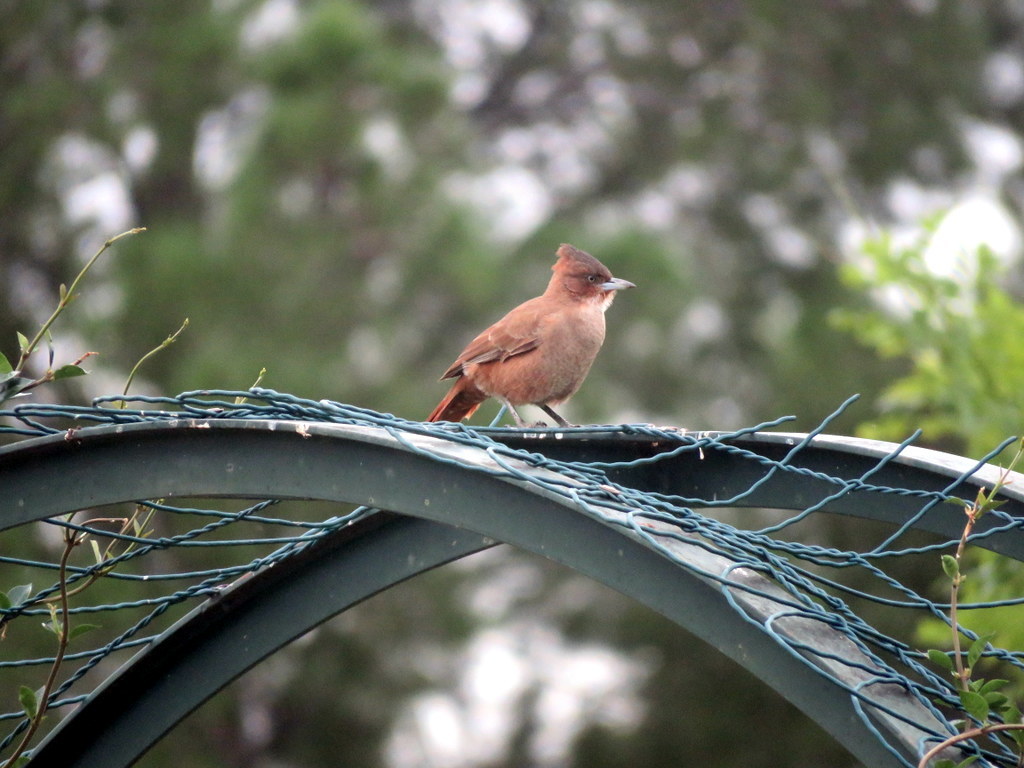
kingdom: Animalia
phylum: Chordata
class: Aves
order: Passeriformes
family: Furnariidae
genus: Pseudoseisura
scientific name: Pseudoseisura lophotes
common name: Brown cacholote
